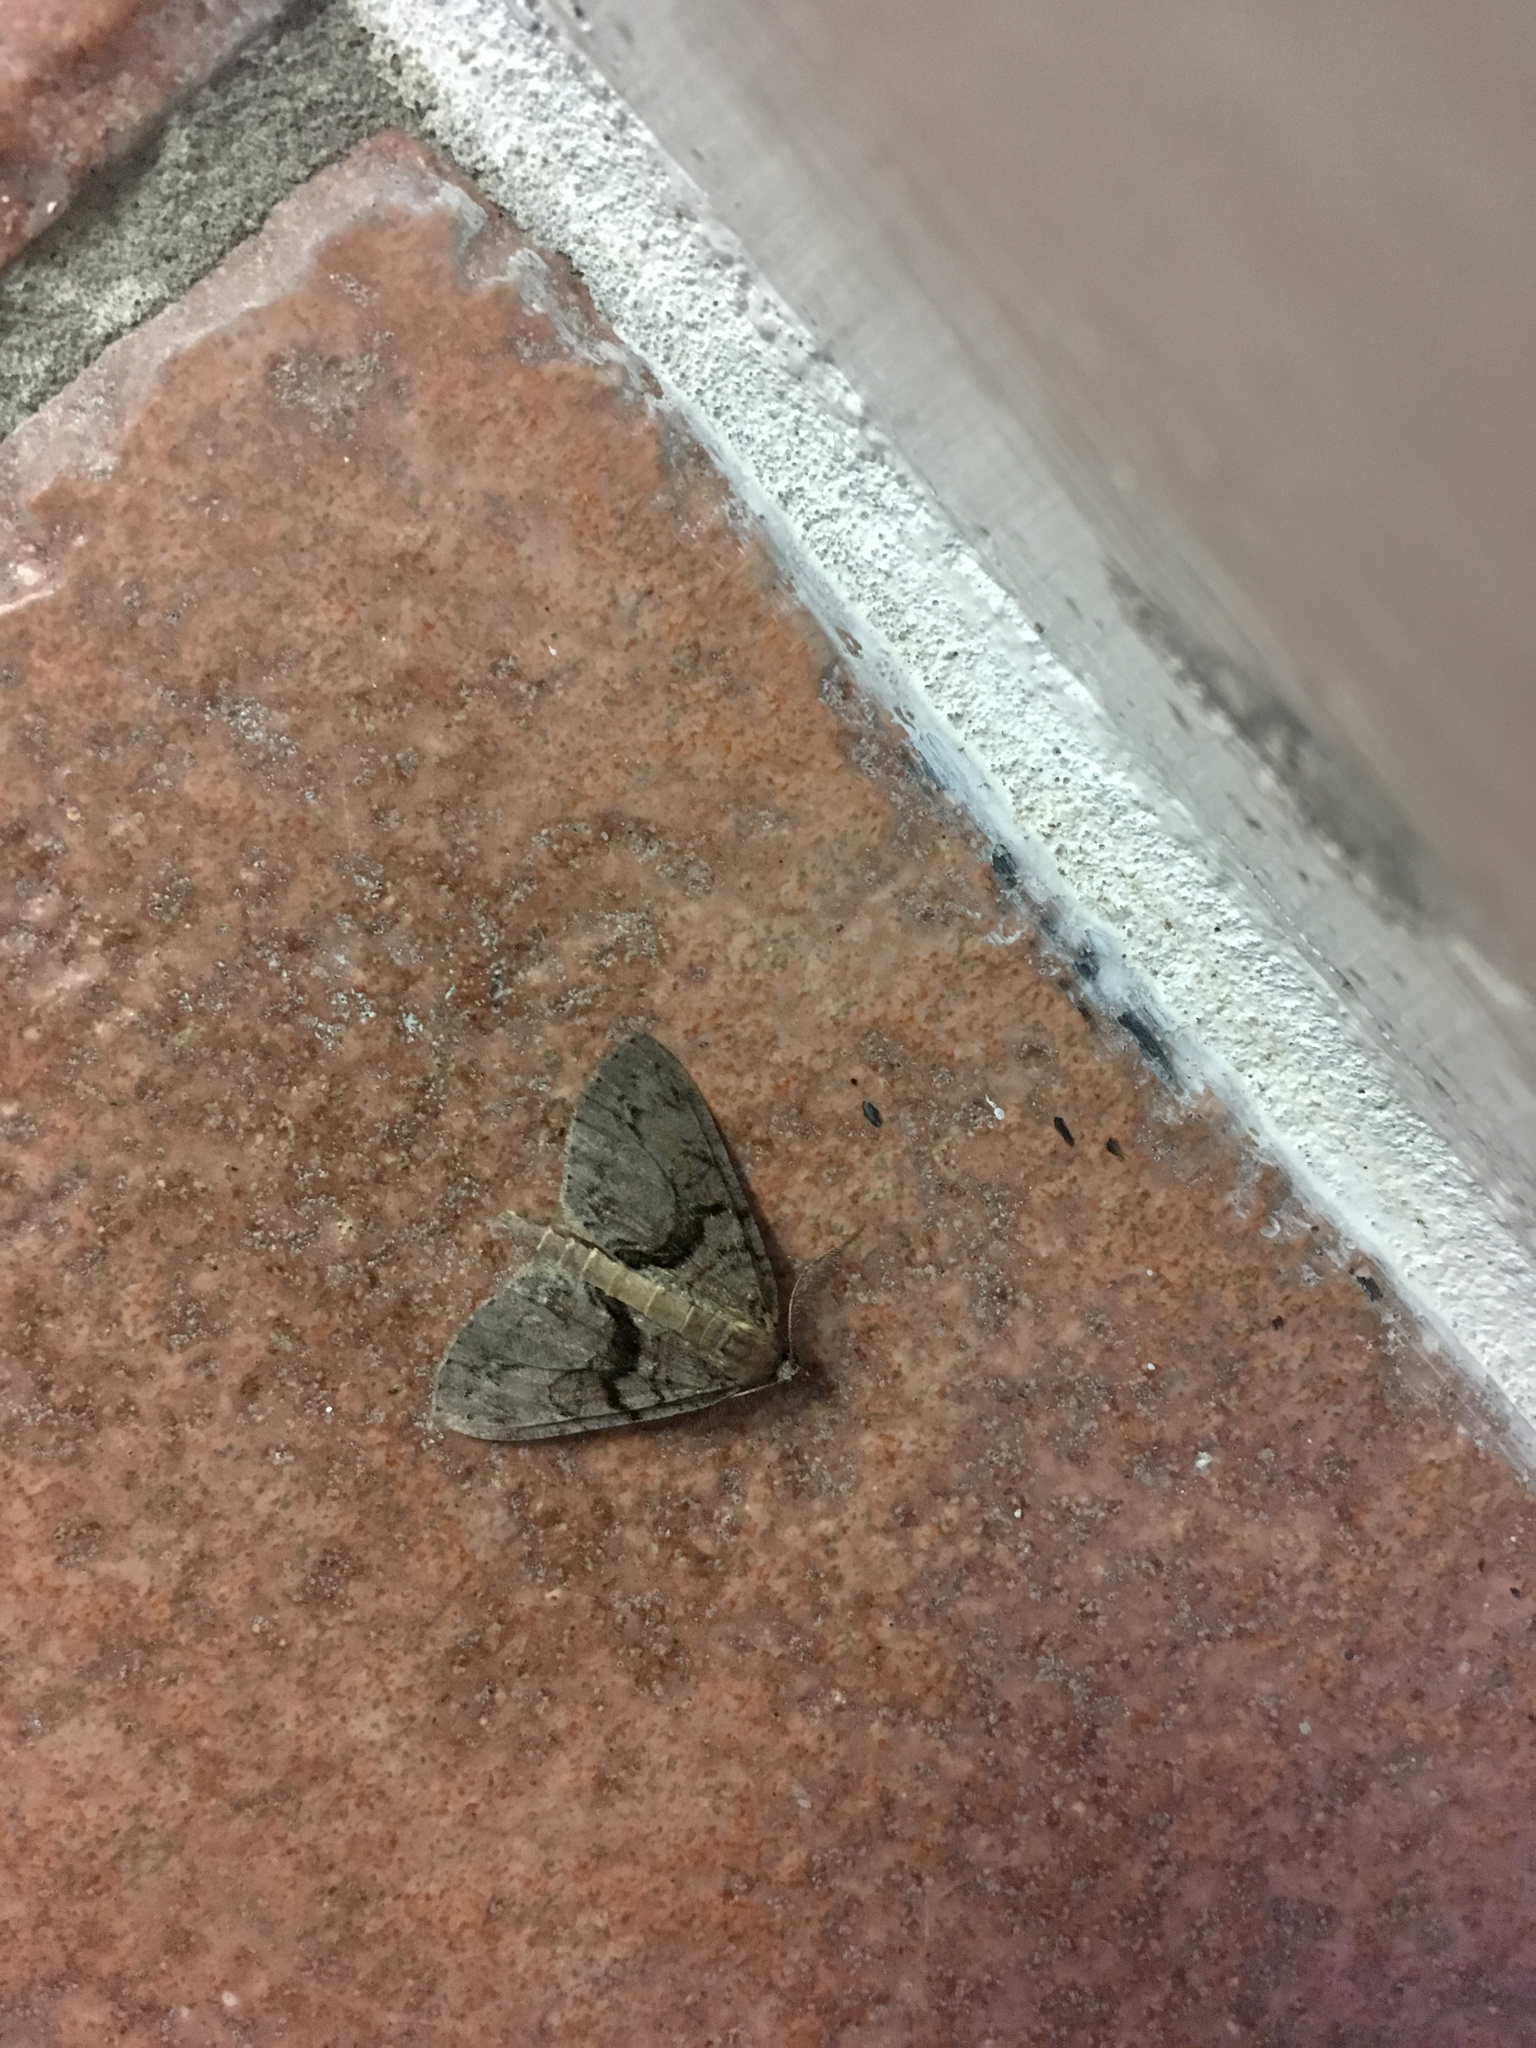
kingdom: Animalia
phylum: Arthropoda
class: Insecta
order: Lepidoptera
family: Geometridae
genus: Pseudocoremia
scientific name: Pseudocoremia suavis
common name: Common forest looper
